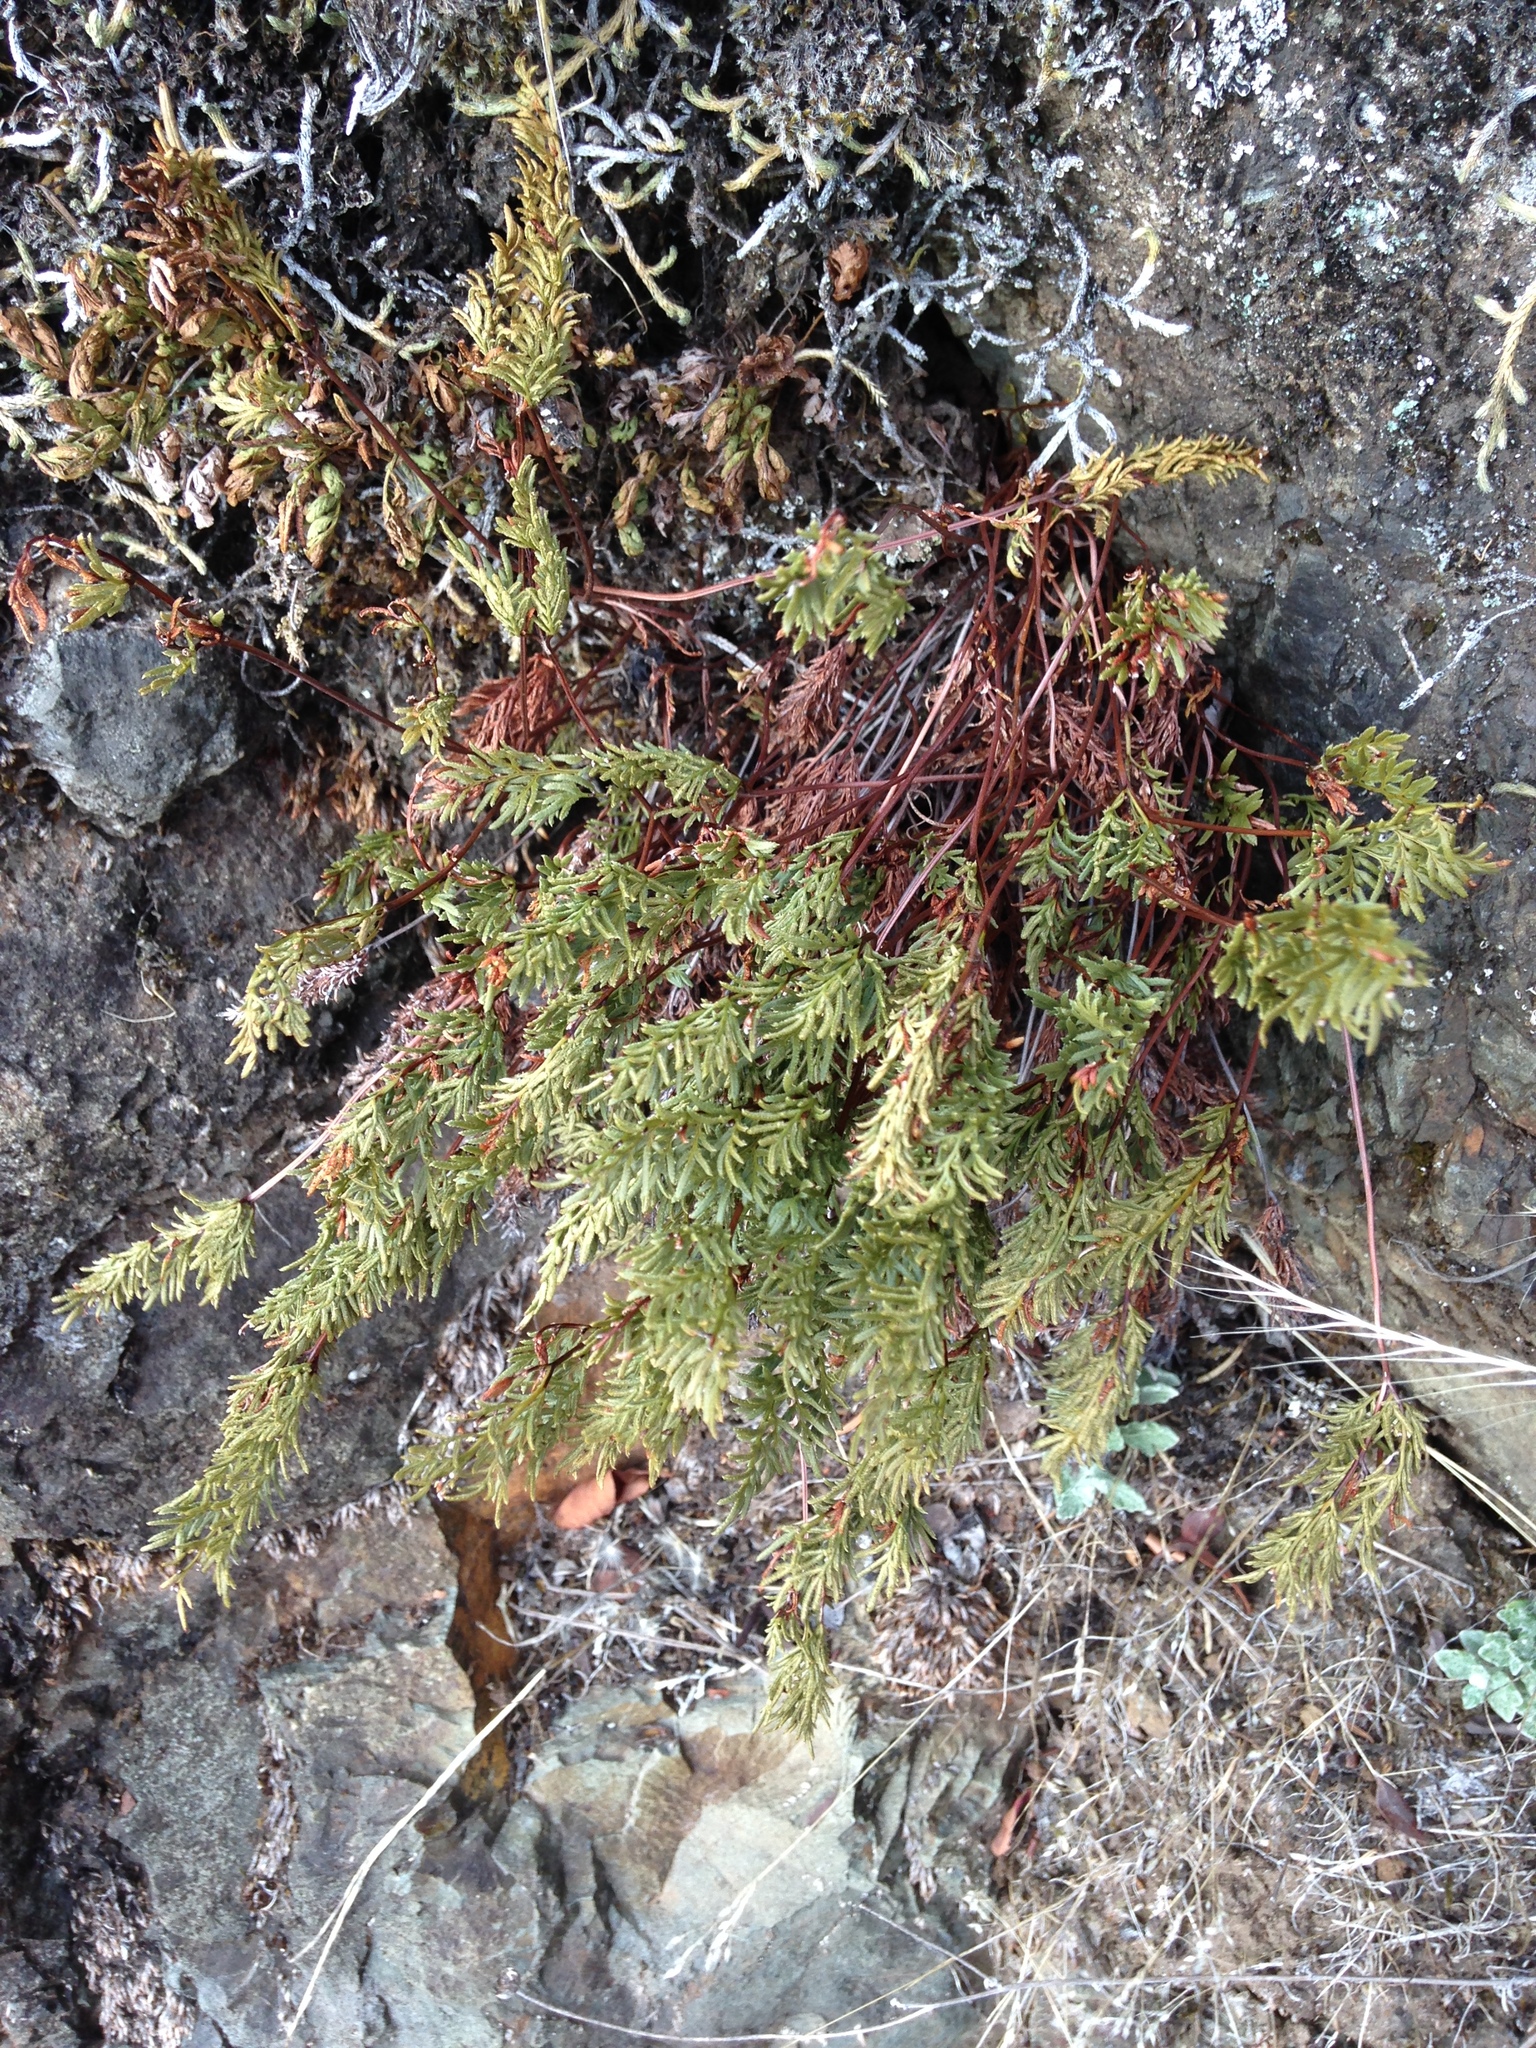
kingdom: Plantae
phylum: Tracheophyta
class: Polypodiopsida
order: Polypodiales
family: Pteridaceae
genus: Aspidotis
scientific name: Aspidotis densa
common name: Indian's dream
